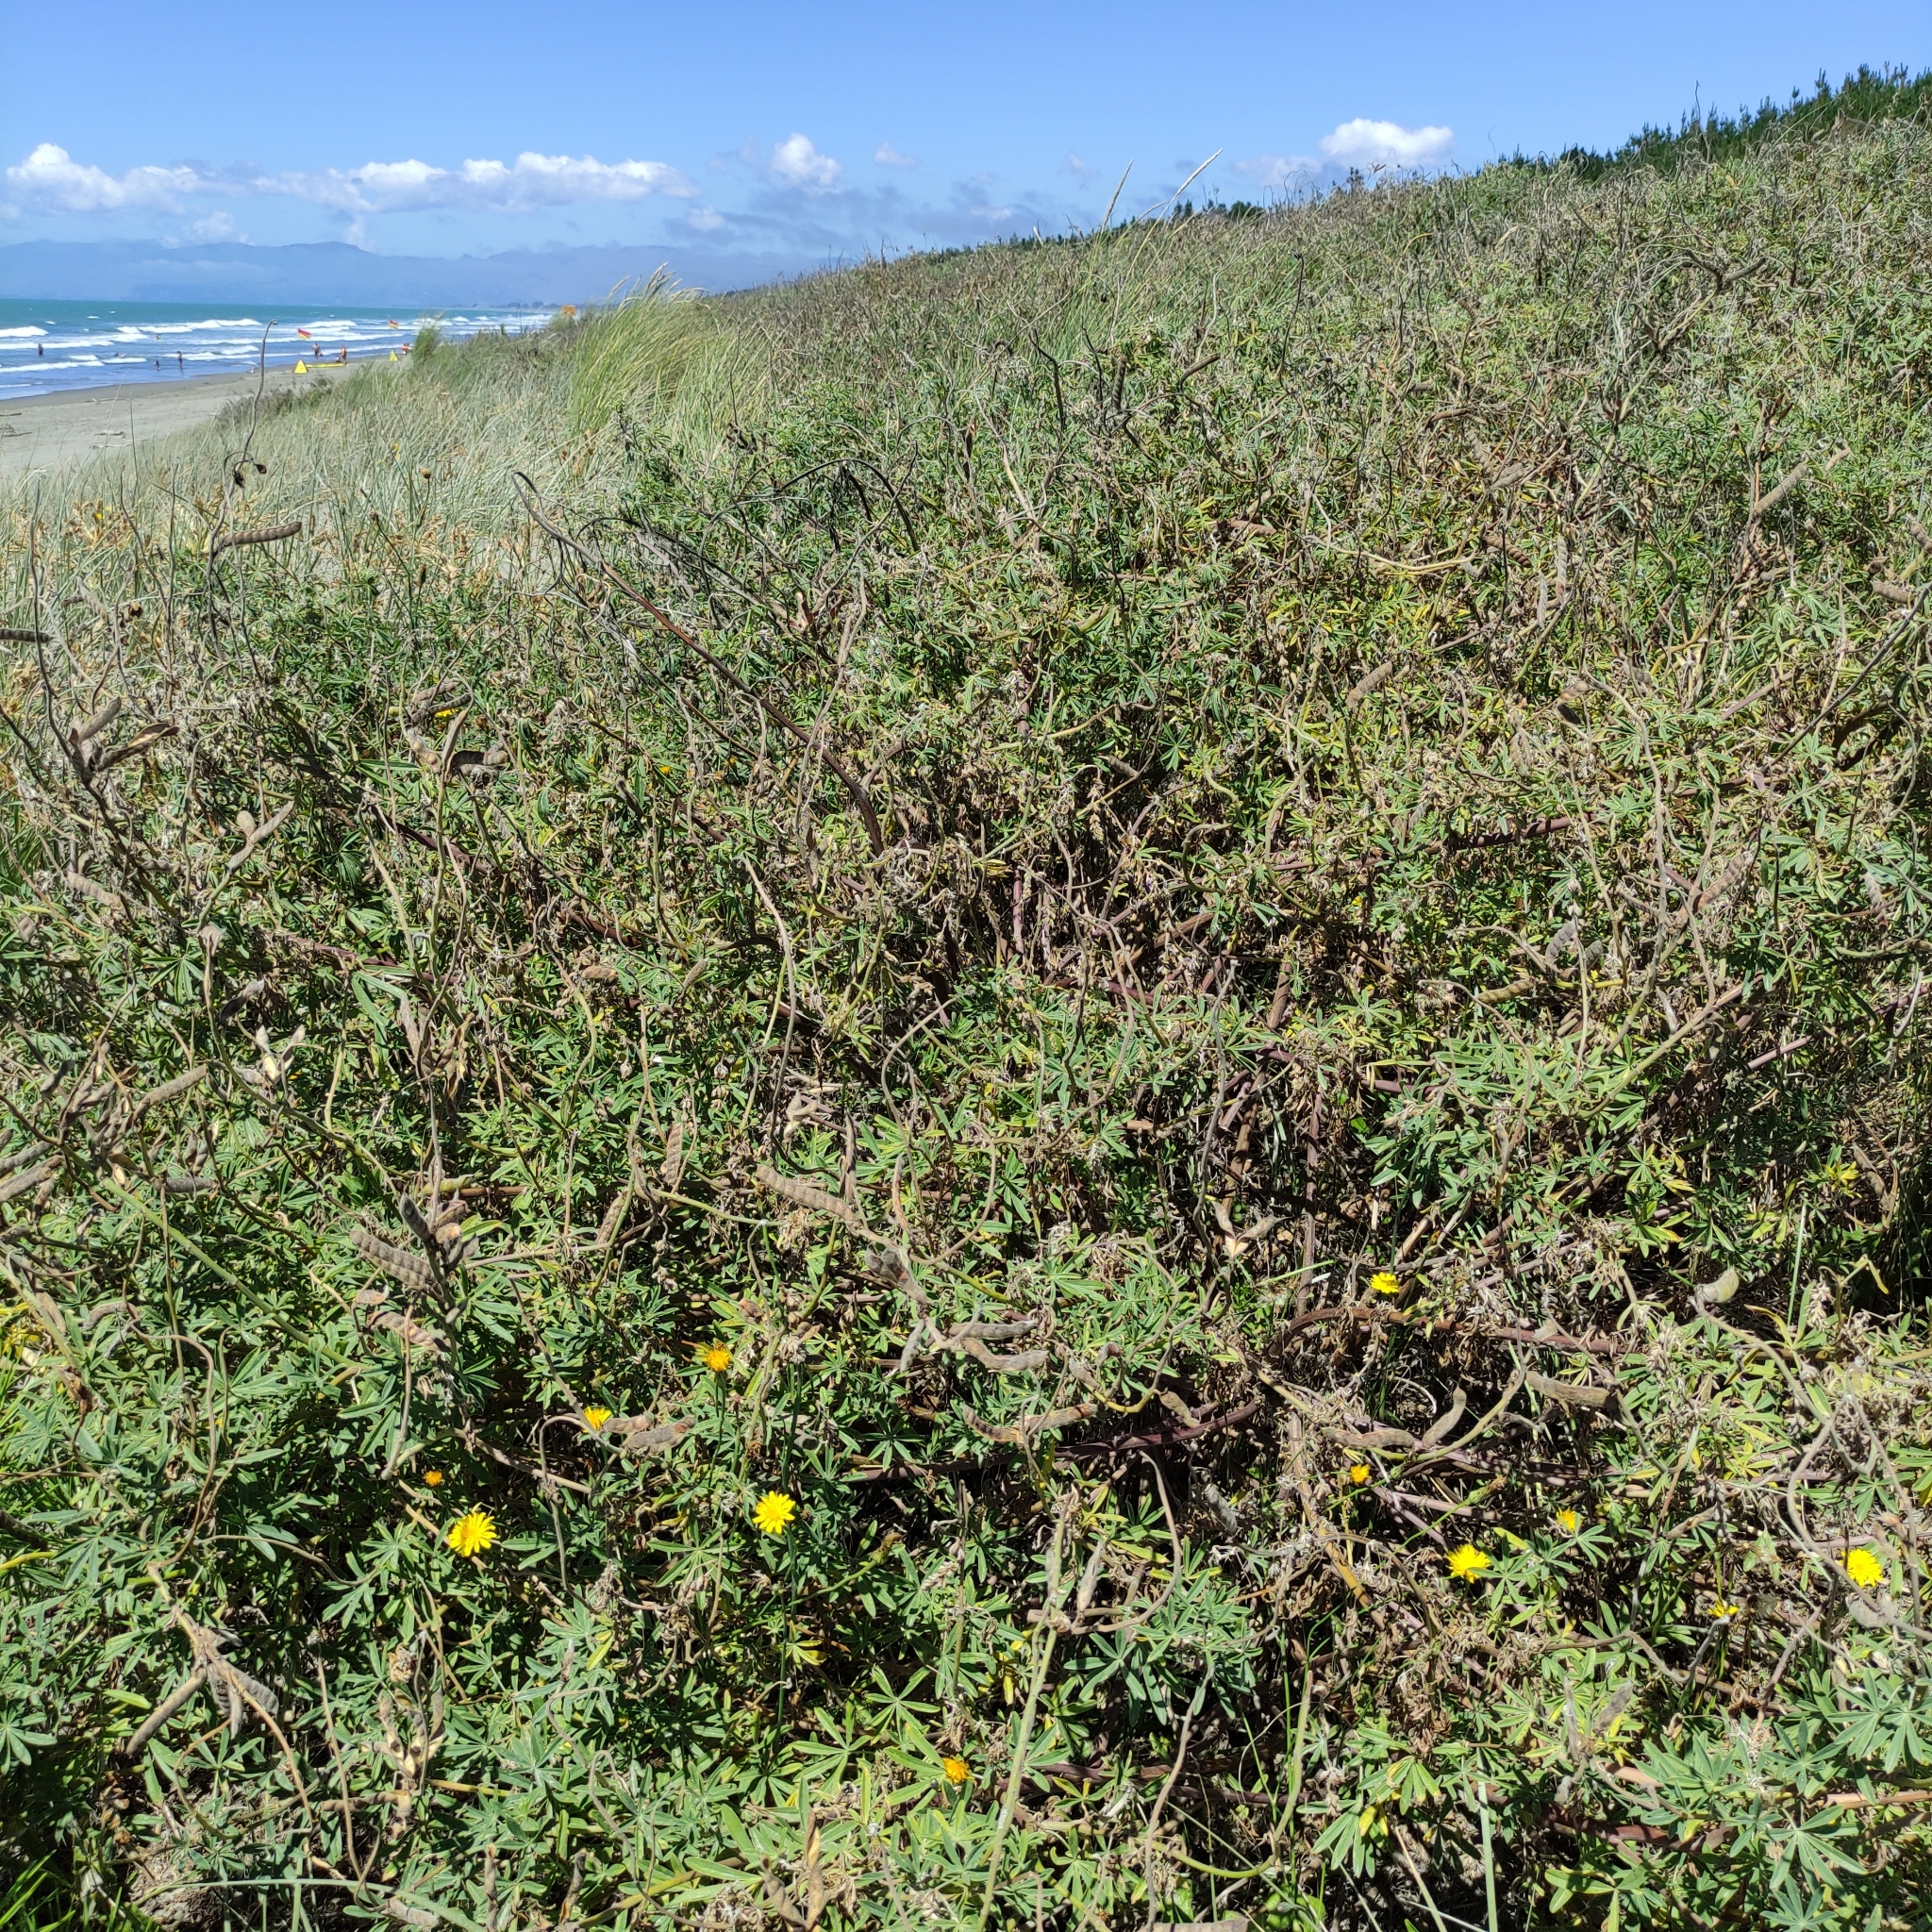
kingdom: Plantae
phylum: Tracheophyta
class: Magnoliopsida
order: Fabales
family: Fabaceae
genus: Lupinus
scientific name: Lupinus arboreus
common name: Yellow bush lupine
